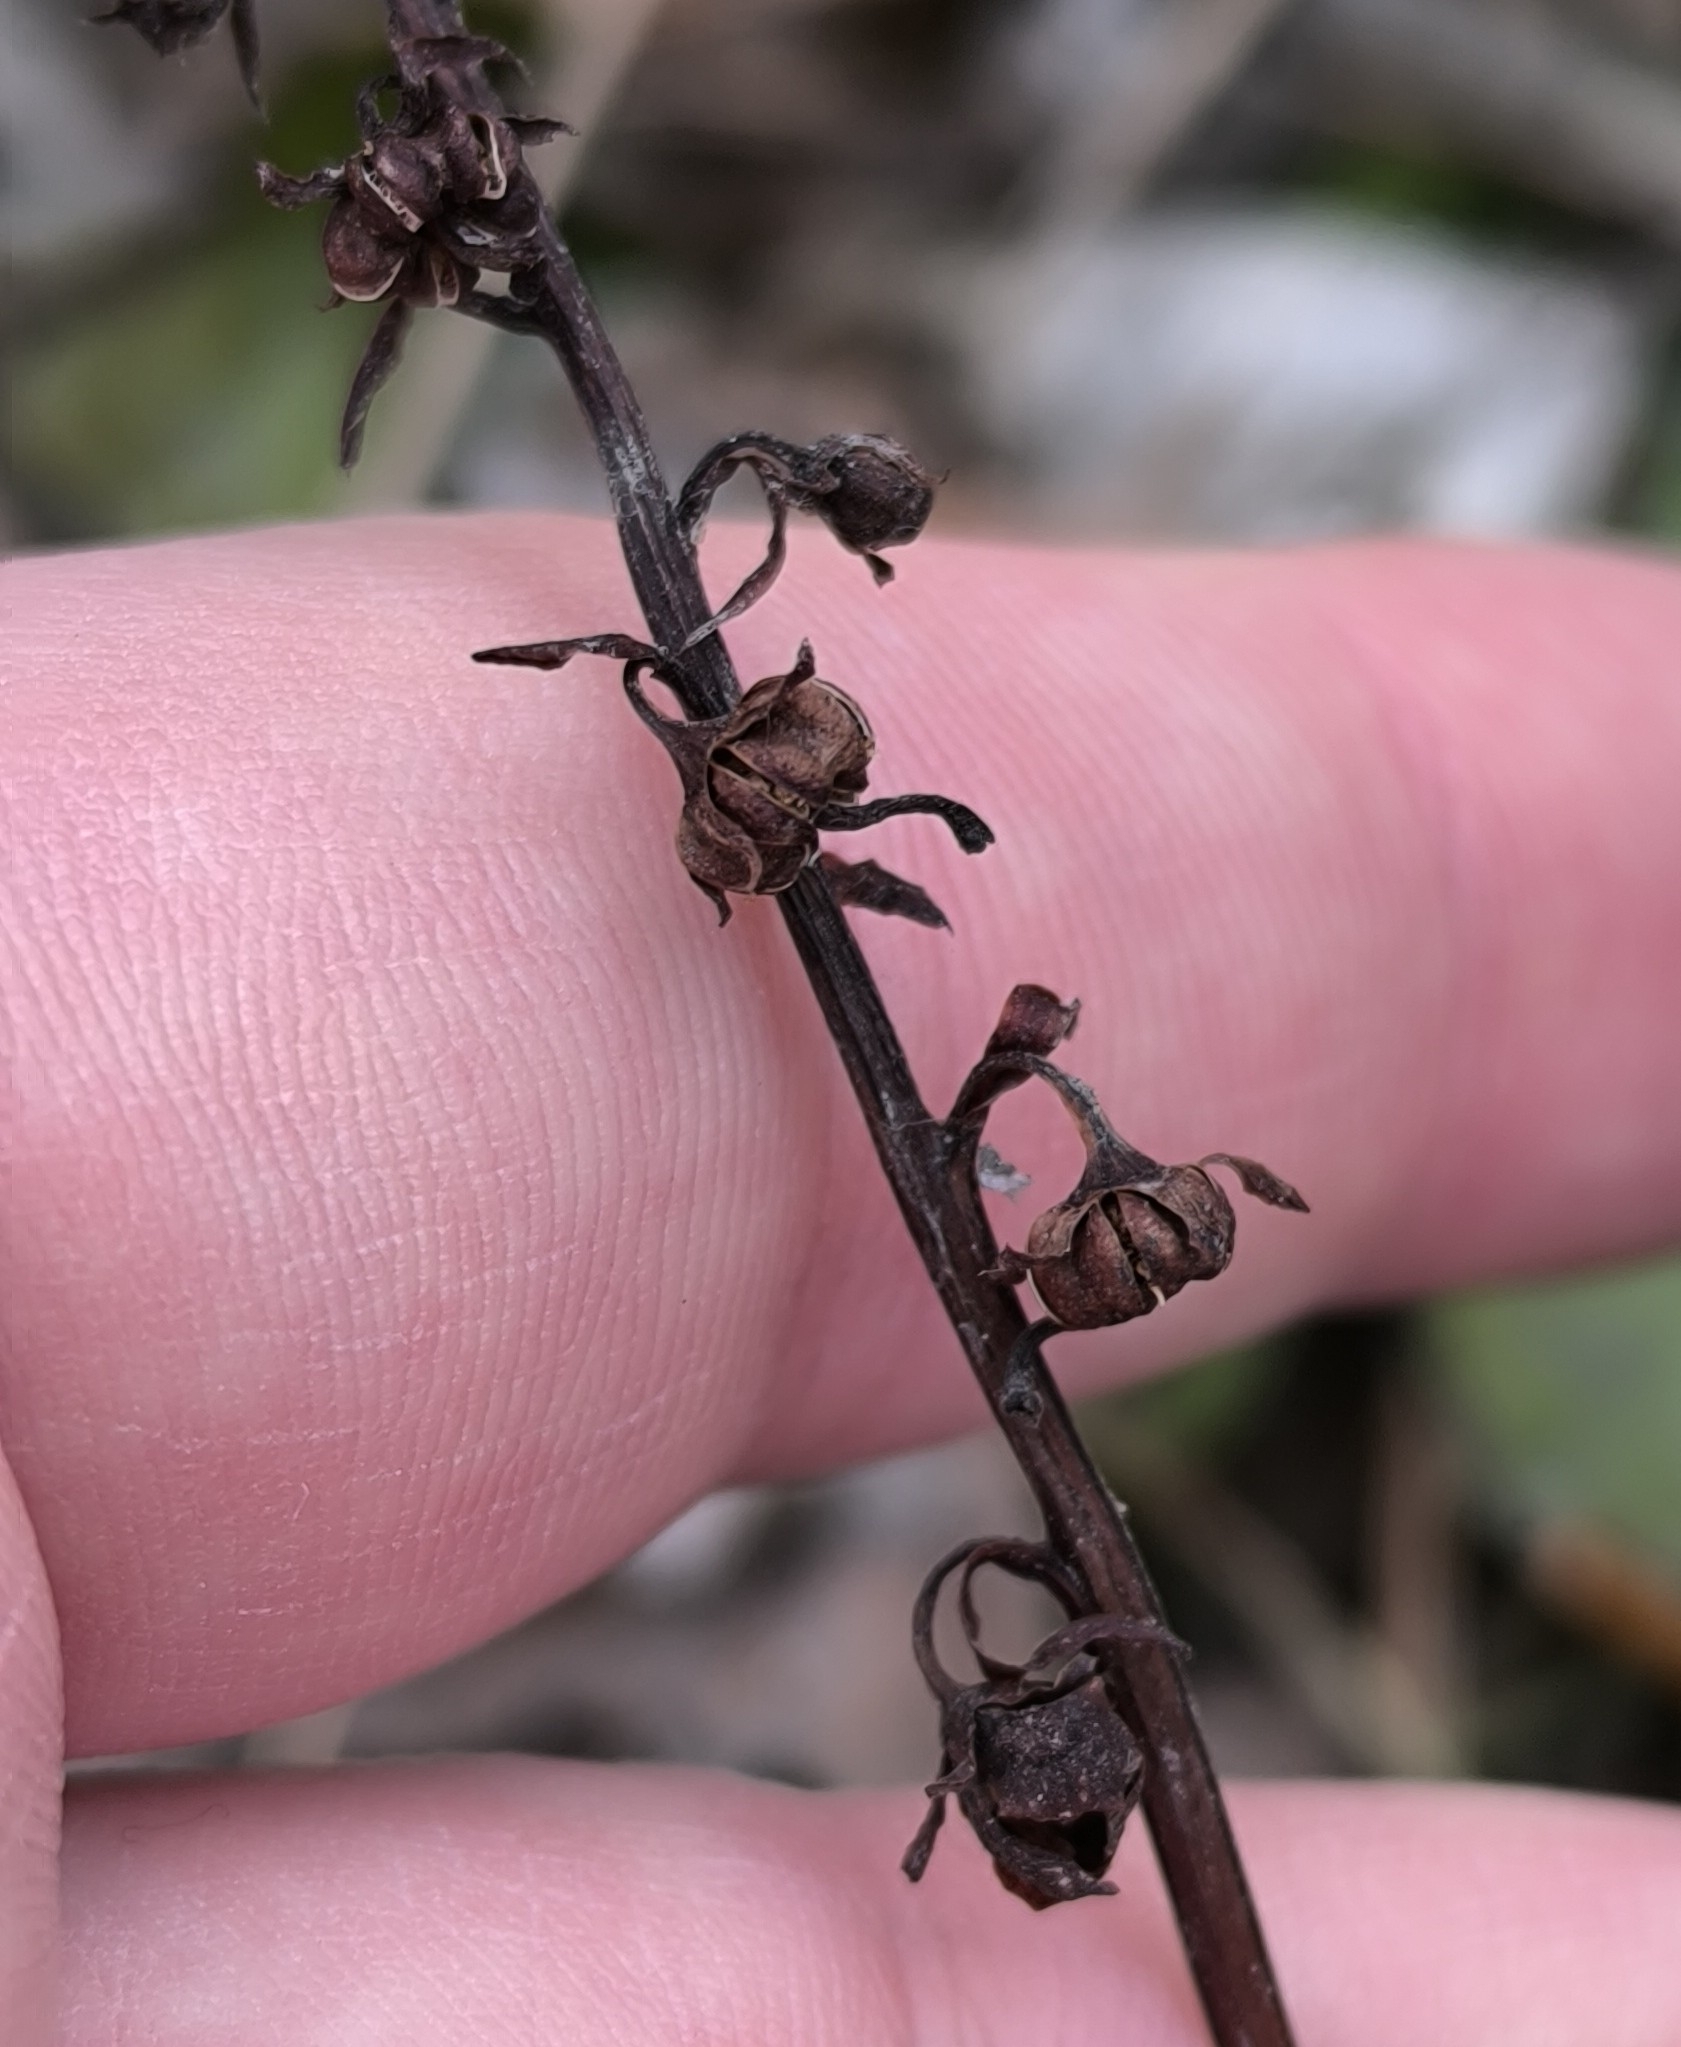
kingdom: Plantae
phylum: Tracheophyta
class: Magnoliopsida
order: Ericales
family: Ericaceae
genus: Pyrola
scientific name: Pyrola rotundifolia
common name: Round-leaved wintergreen
